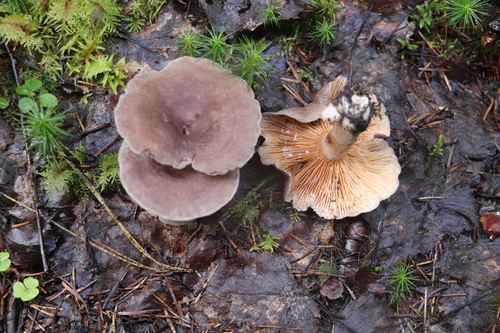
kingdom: Fungi
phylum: Basidiomycota
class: Agaricomycetes
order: Russulales
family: Russulaceae
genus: Lactarius
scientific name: Lactarius flexuosus
